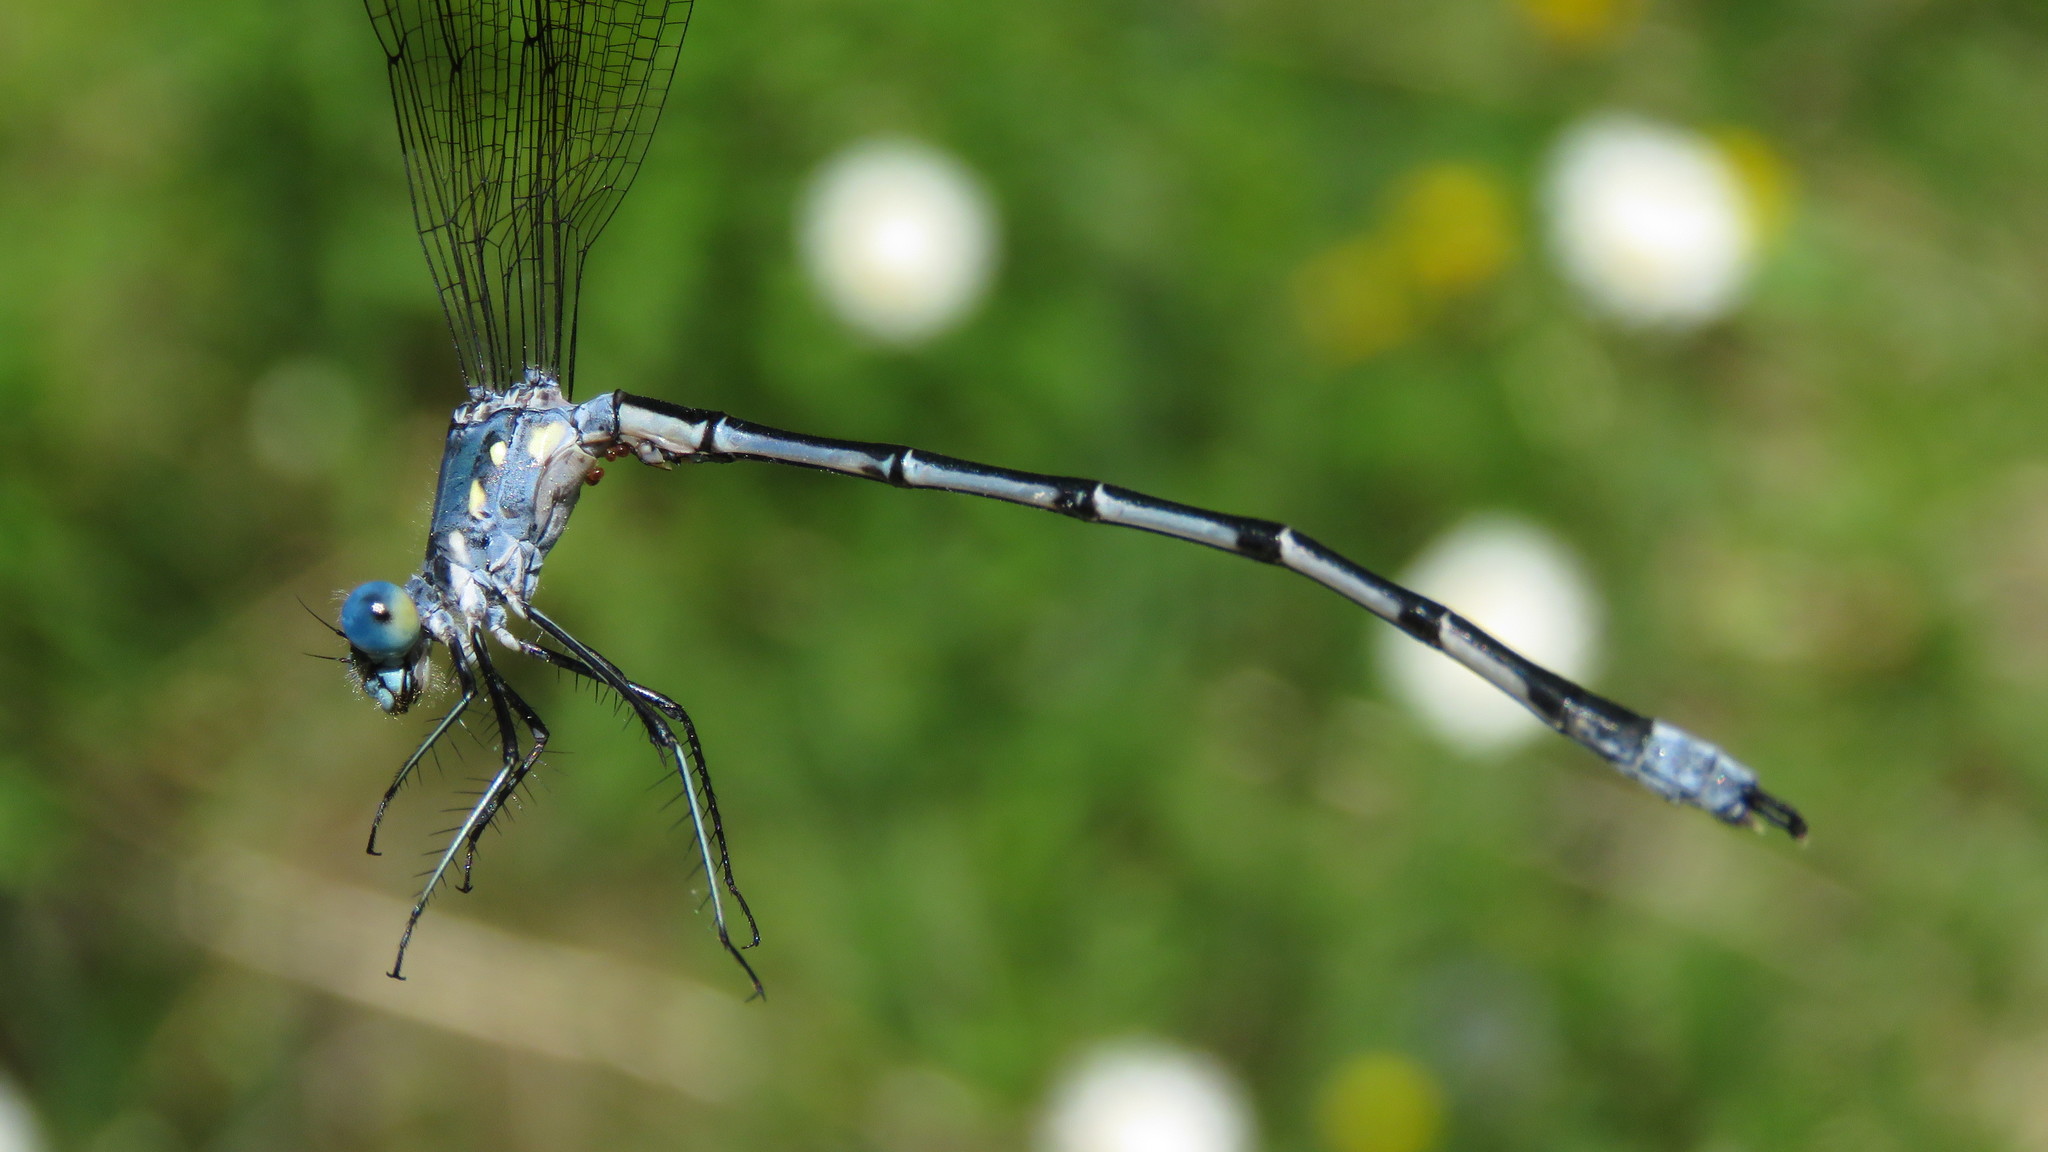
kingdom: Animalia
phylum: Arthropoda
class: Insecta
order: Odonata
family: Lestidae
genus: Lestes
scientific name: Lestes eurinus
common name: Amber-winged spreadwing
